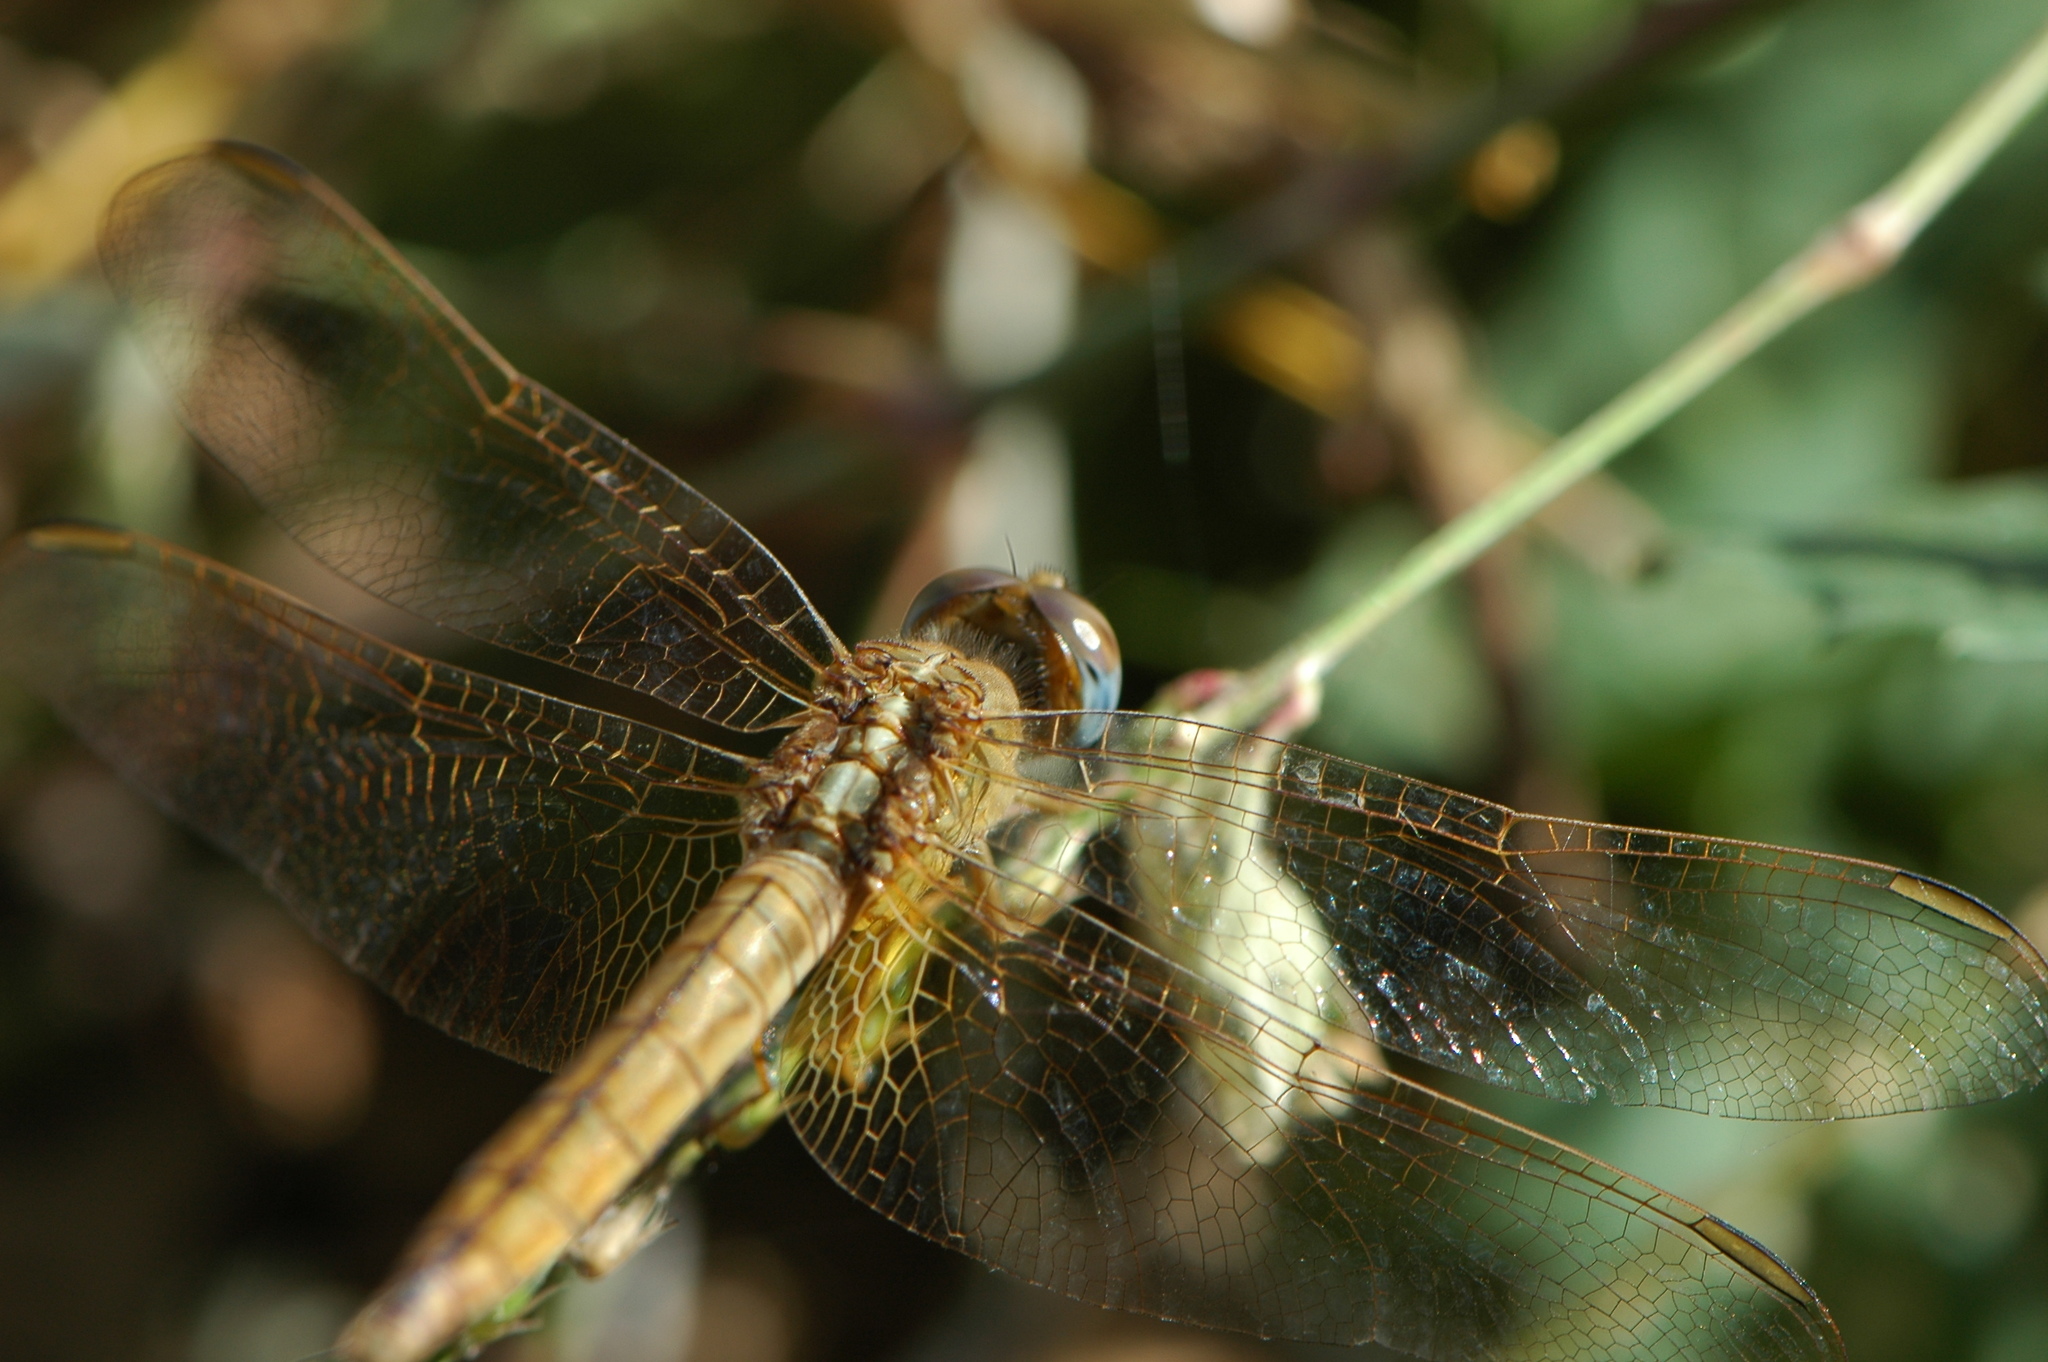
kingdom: Animalia
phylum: Arthropoda
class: Insecta
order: Odonata
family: Libellulidae
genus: Crocothemis
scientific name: Crocothemis erythraea
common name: Scarlet dragonfly
